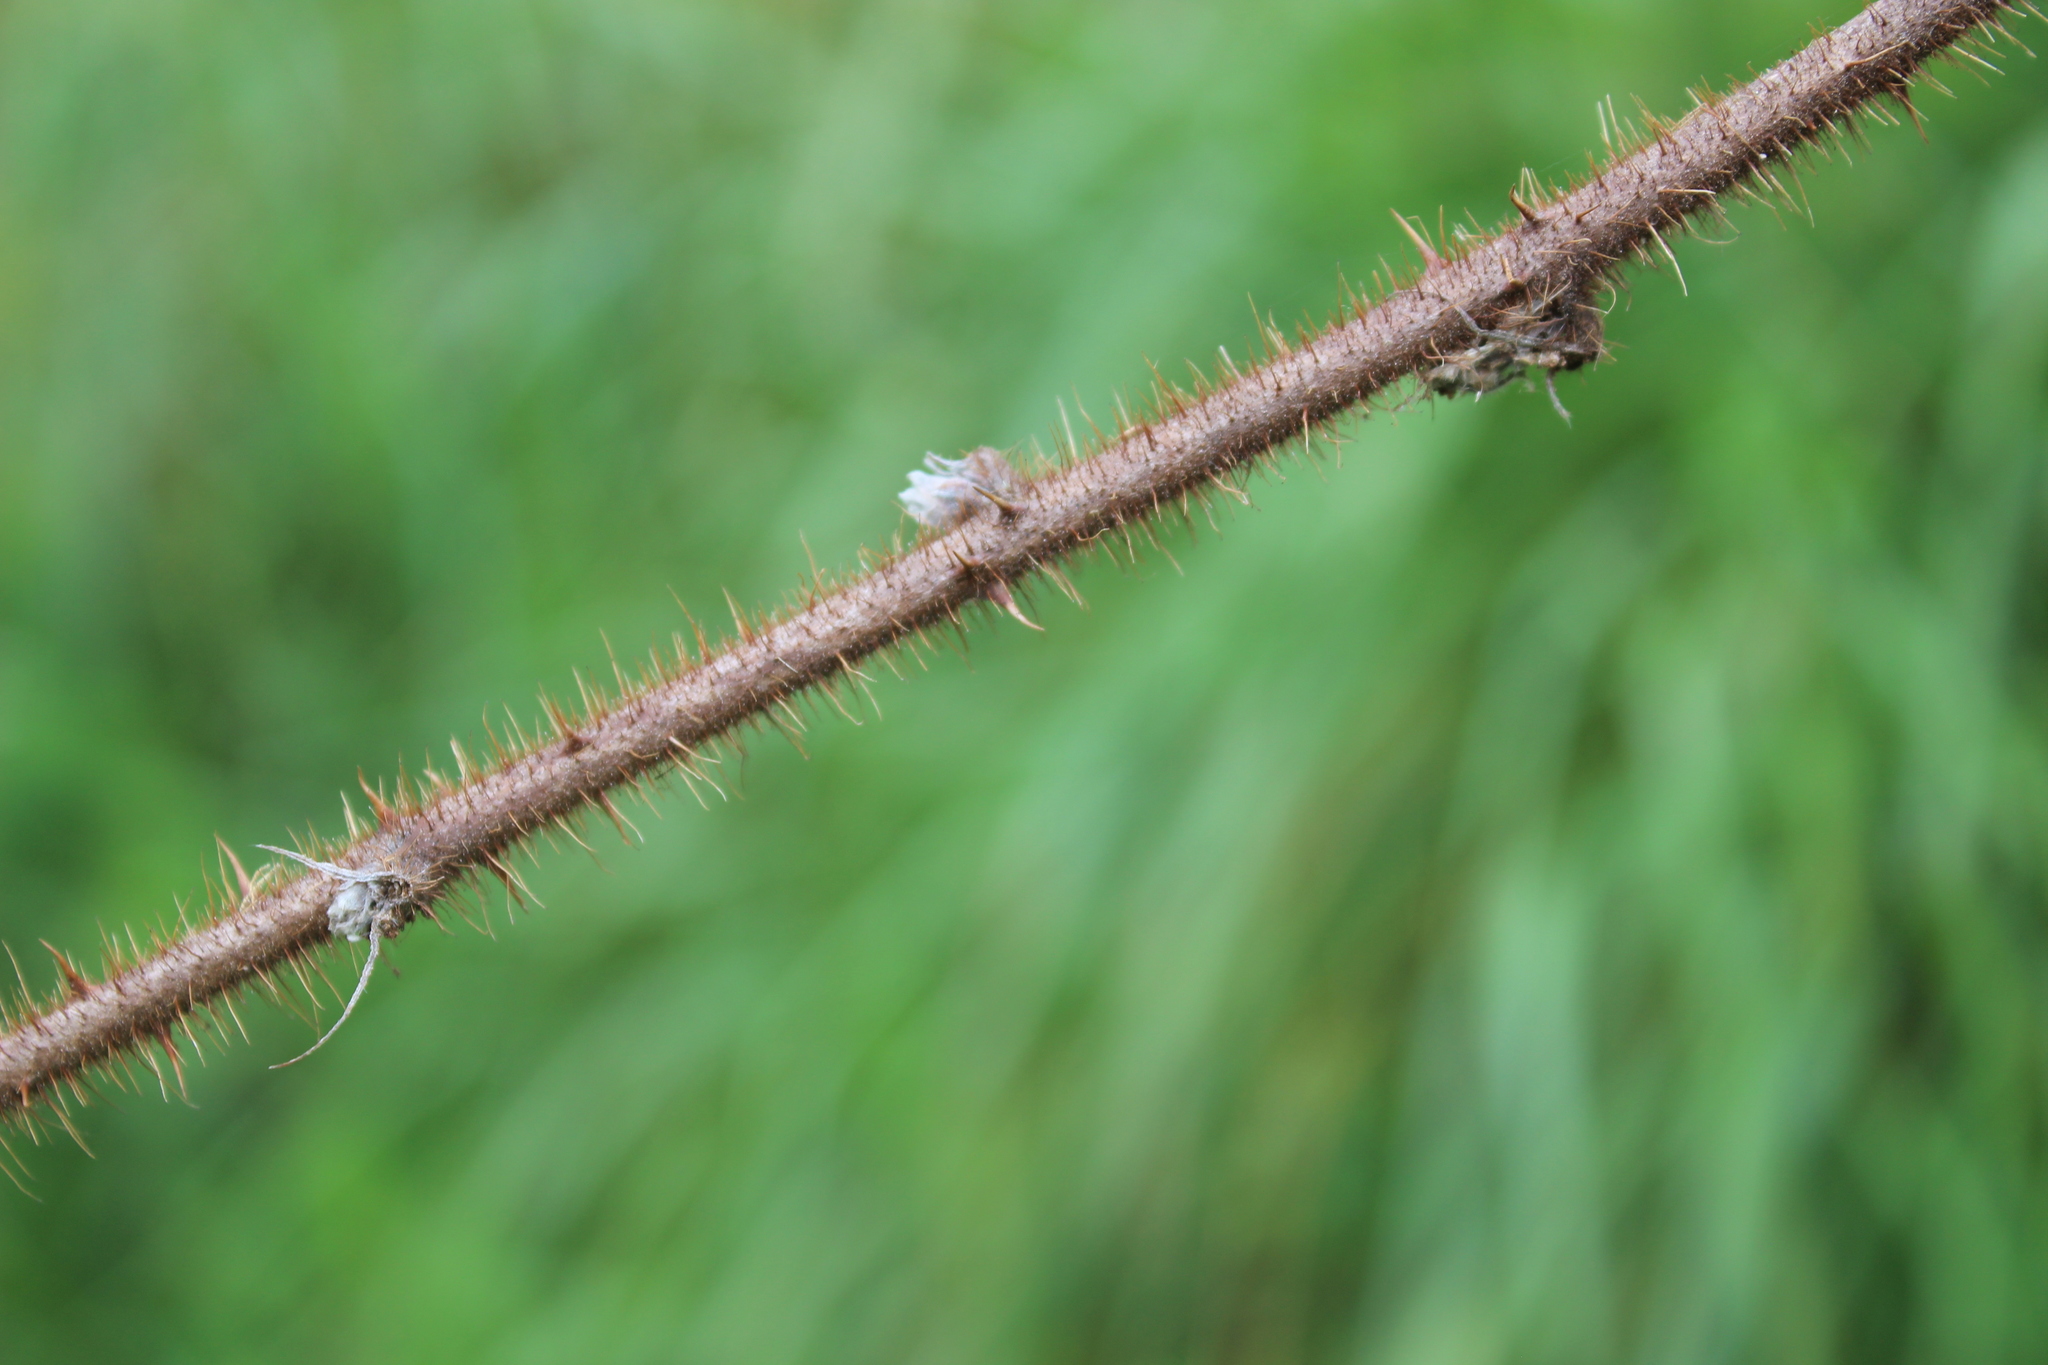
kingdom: Plantae
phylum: Tracheophyta
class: Magnoliopsida
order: Rosales
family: Rosaceae
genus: Rubus
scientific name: Rubus idaeus
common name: Raspberry
